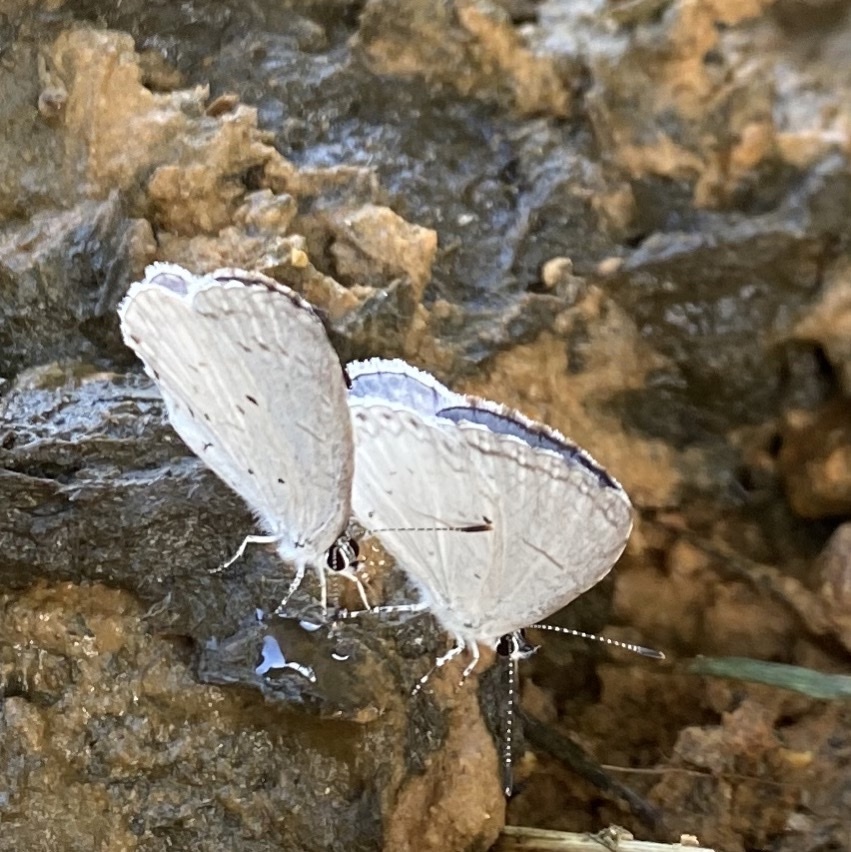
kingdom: Animalia
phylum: Arthropoda
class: Insecta
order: Lepidoptera
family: Lycaenidae
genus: Cyaniris
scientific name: Cyaniris neglecta
